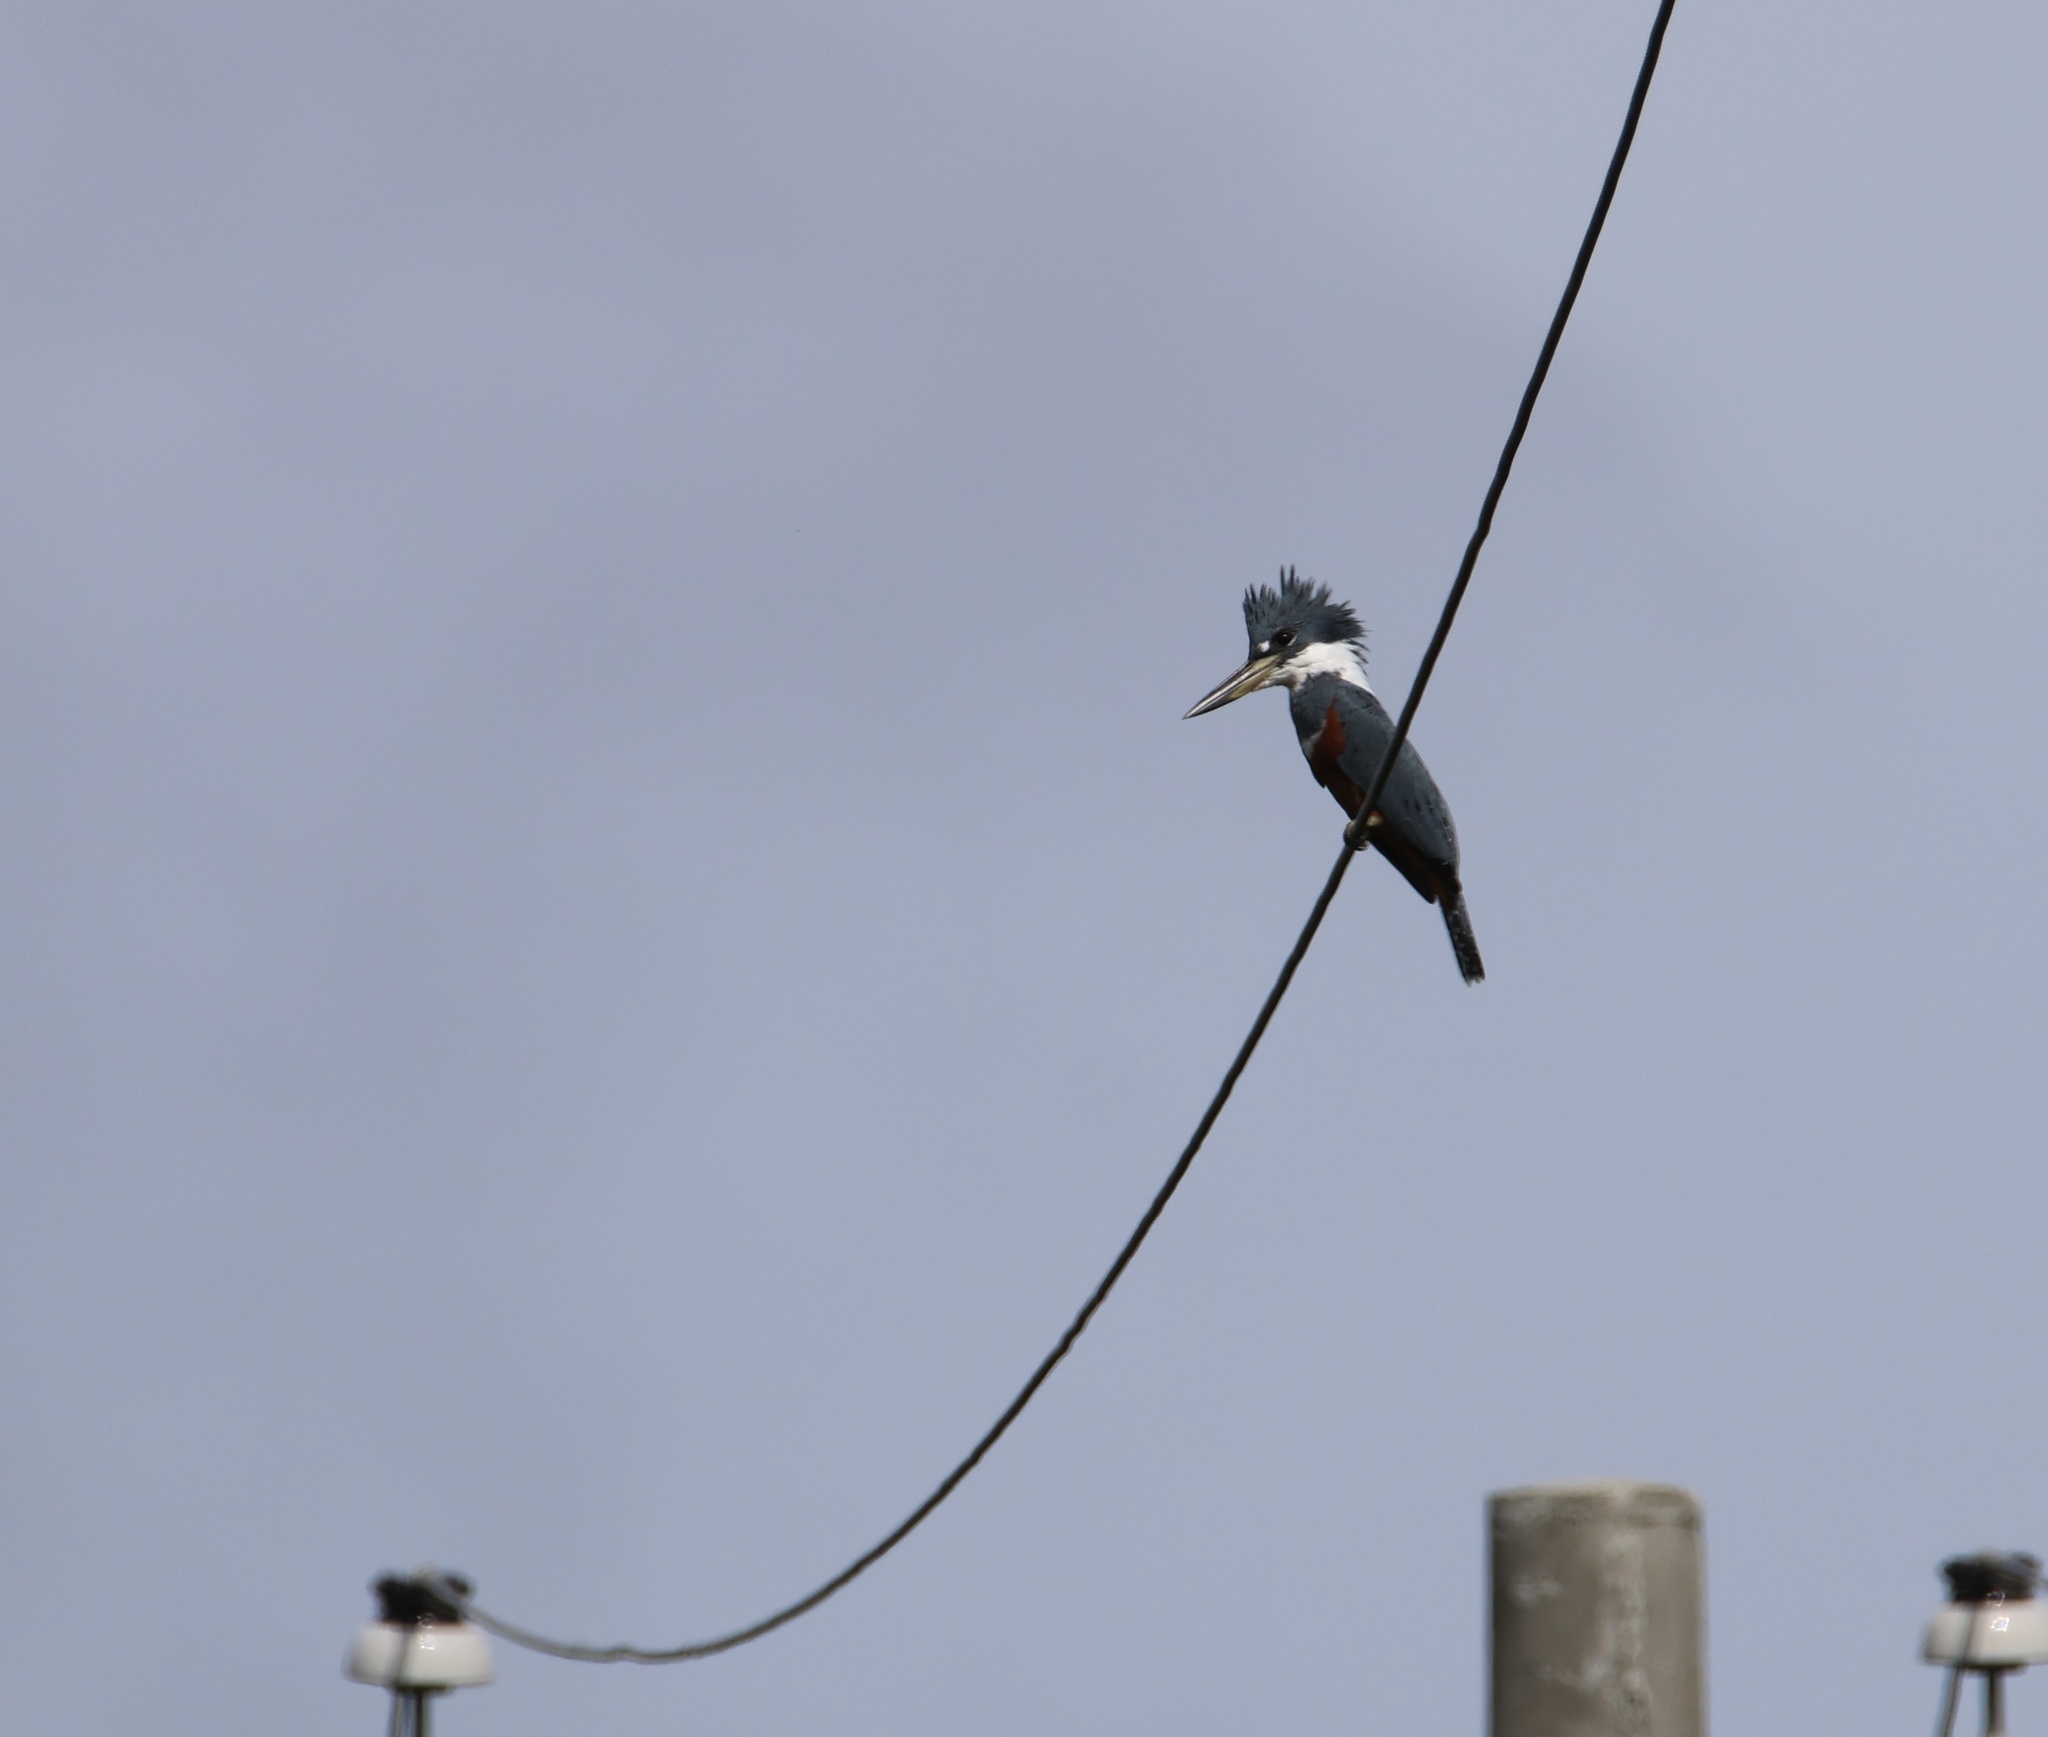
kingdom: Animalia
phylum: Chordata
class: Aves
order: Coraciiformes
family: Alcedinidae
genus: Megaceryle
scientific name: Megaceryle torquata
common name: Ringed kingfisher
